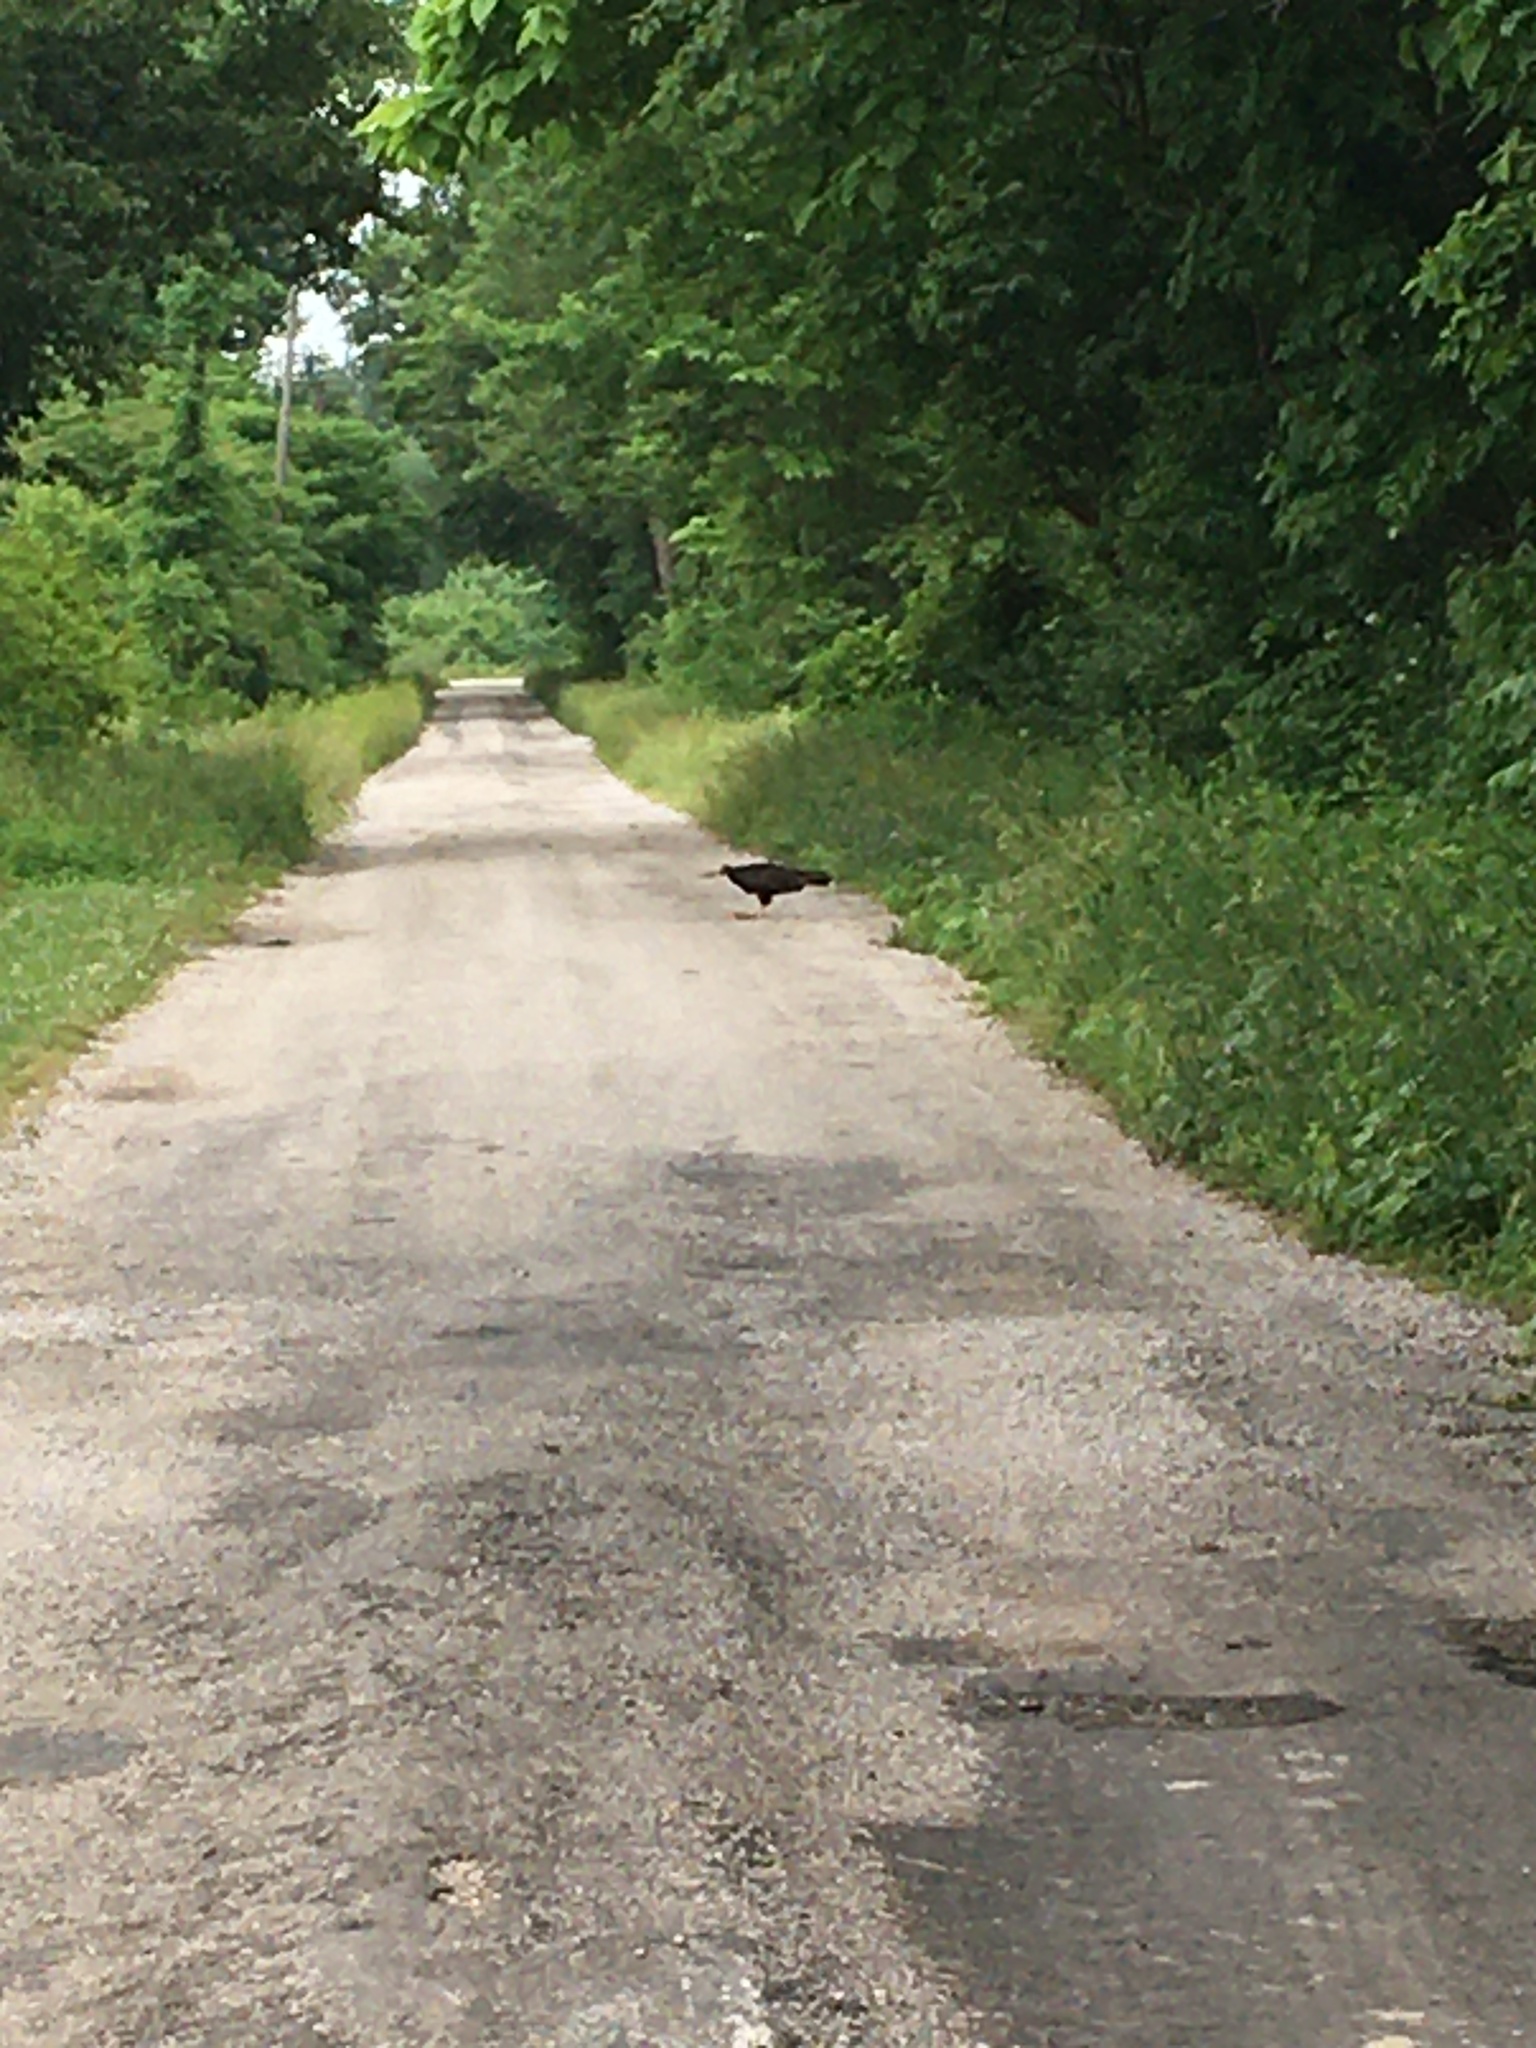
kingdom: Animalia
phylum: Chordata
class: Aves
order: Accipitriformes
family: Cathartidae
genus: Cathartes
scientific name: Cathartes aura
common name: Turkey vulture
